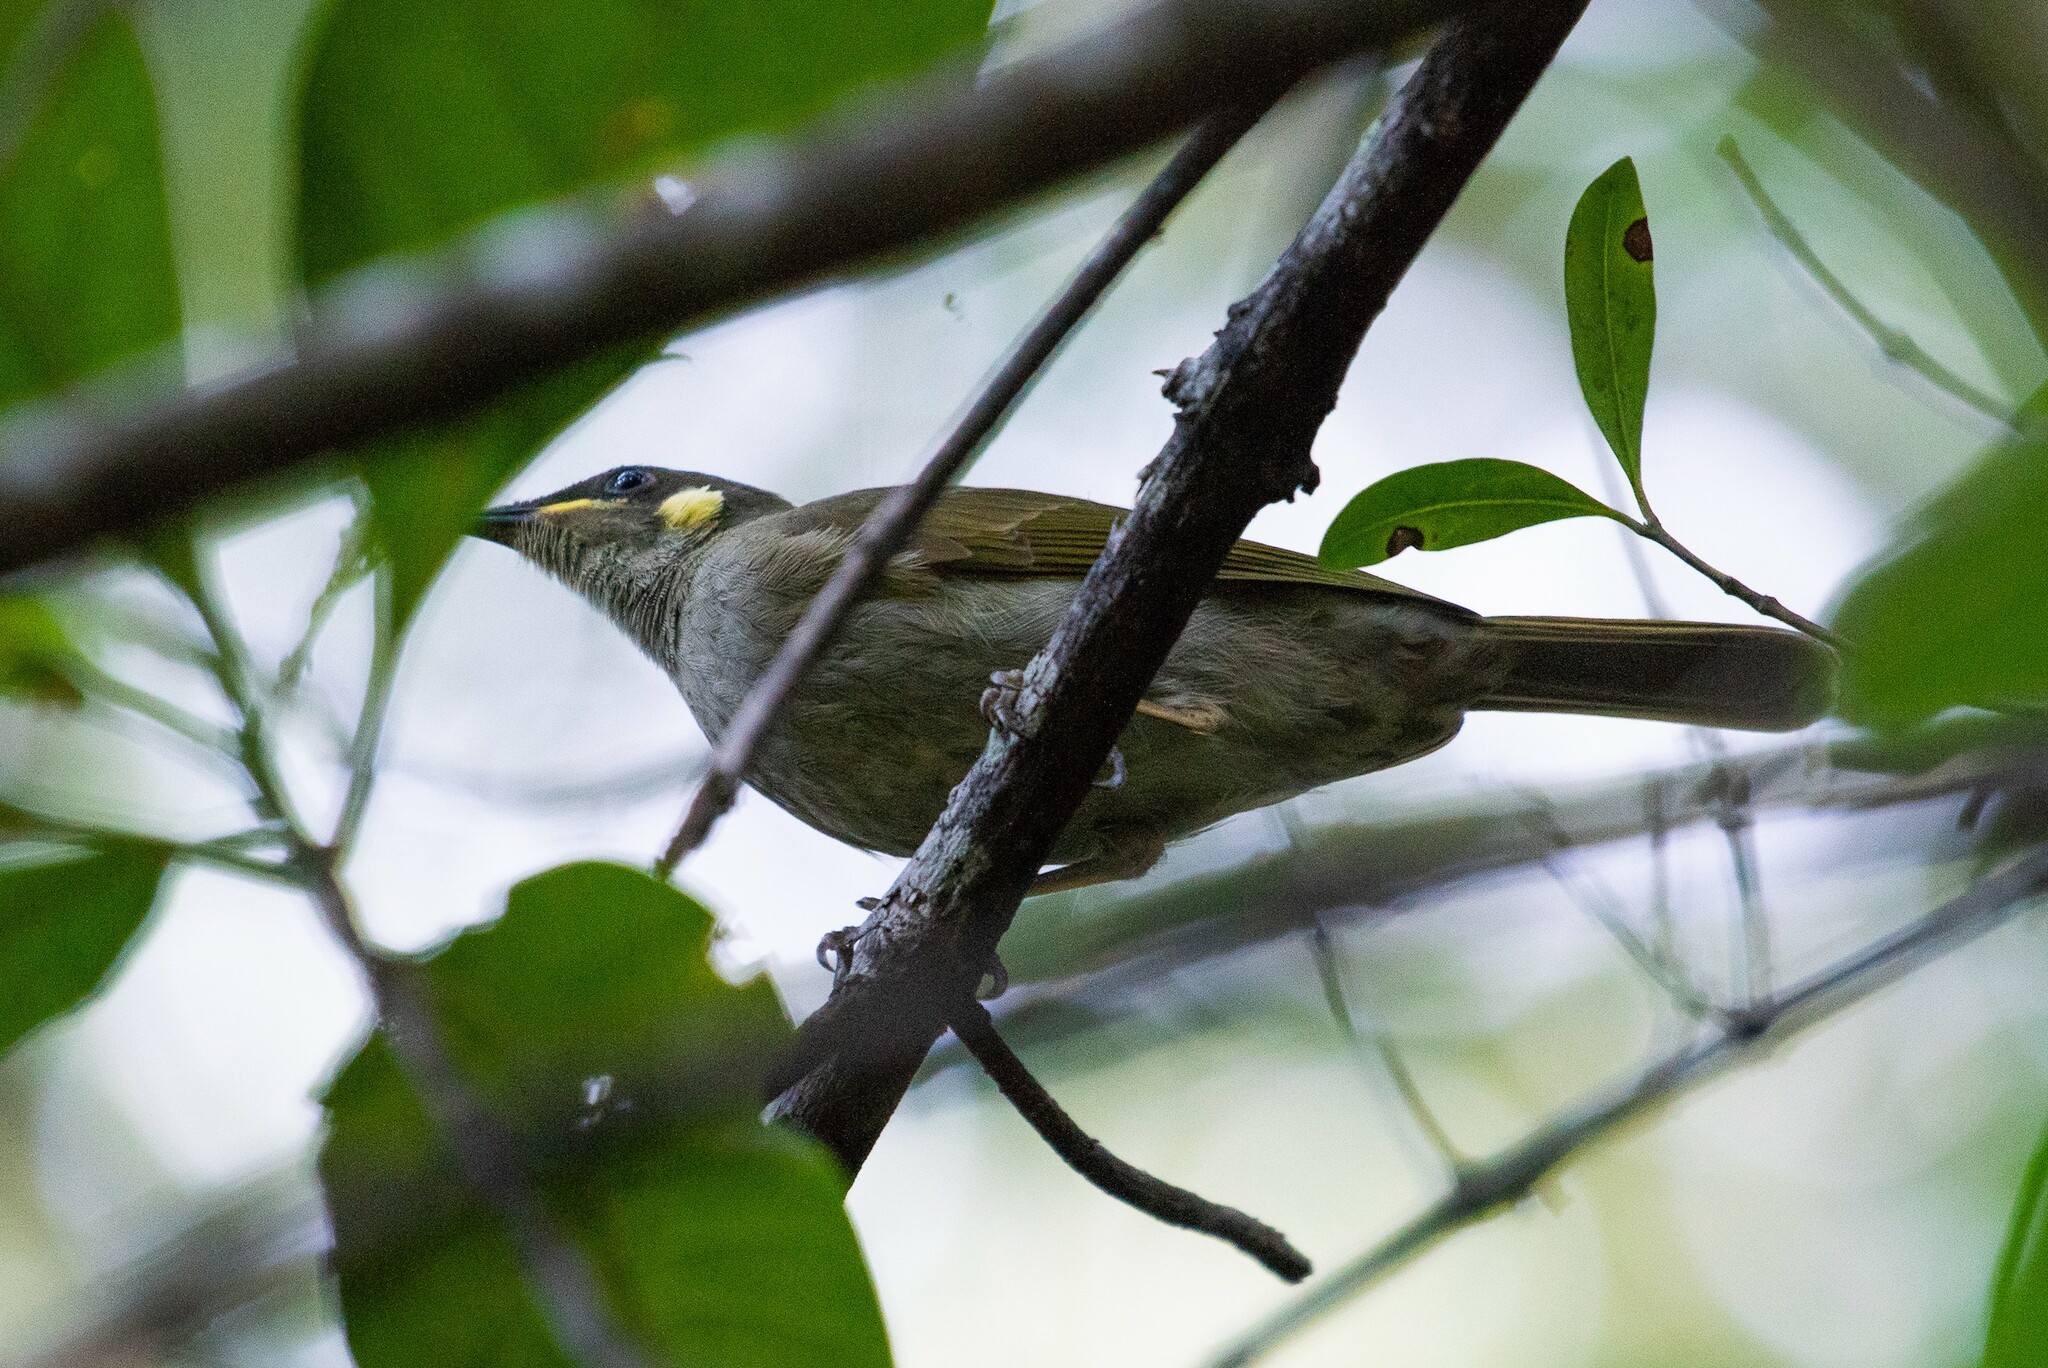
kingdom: Animalia
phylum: Chordata
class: Aves
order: Passeriformes
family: Meliphagidae
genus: Meliphaga
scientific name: Meliphaga notata
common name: Yellow-spotted honeyeater
